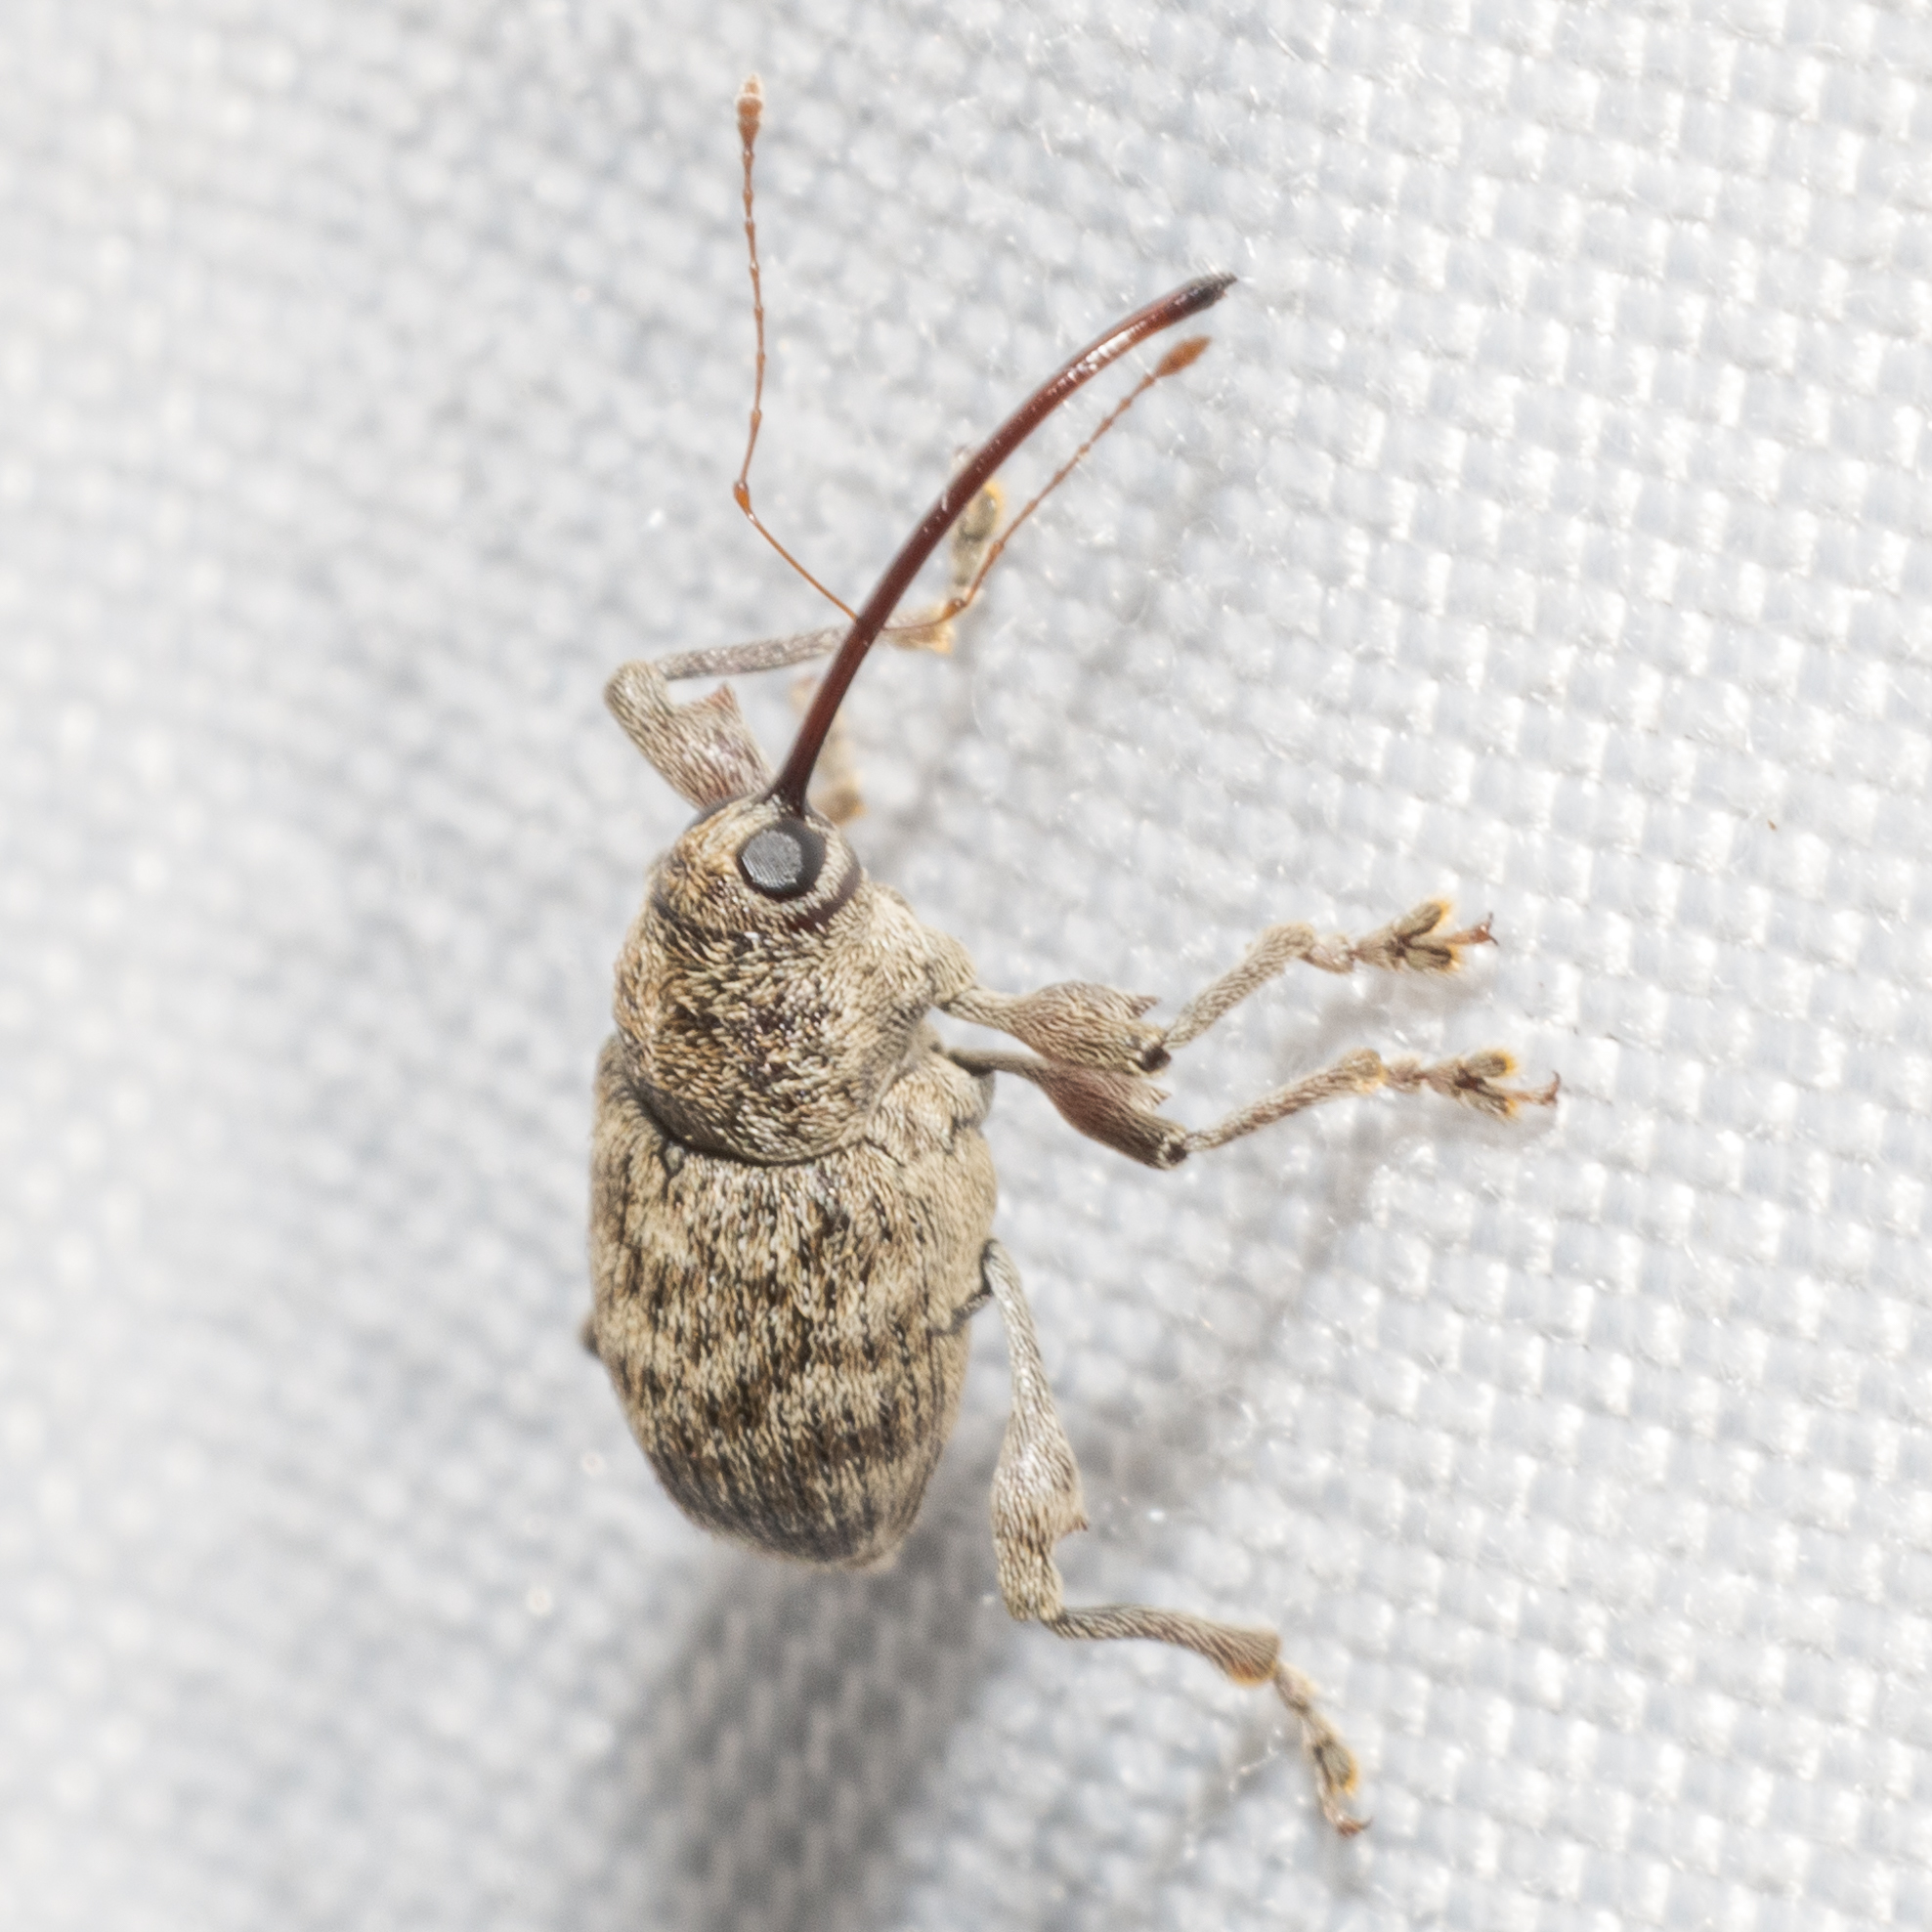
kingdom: Animalia
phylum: Arthropoda
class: Insecta
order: Coleoptera
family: Curculionidae
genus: Curculio
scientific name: Curculio
